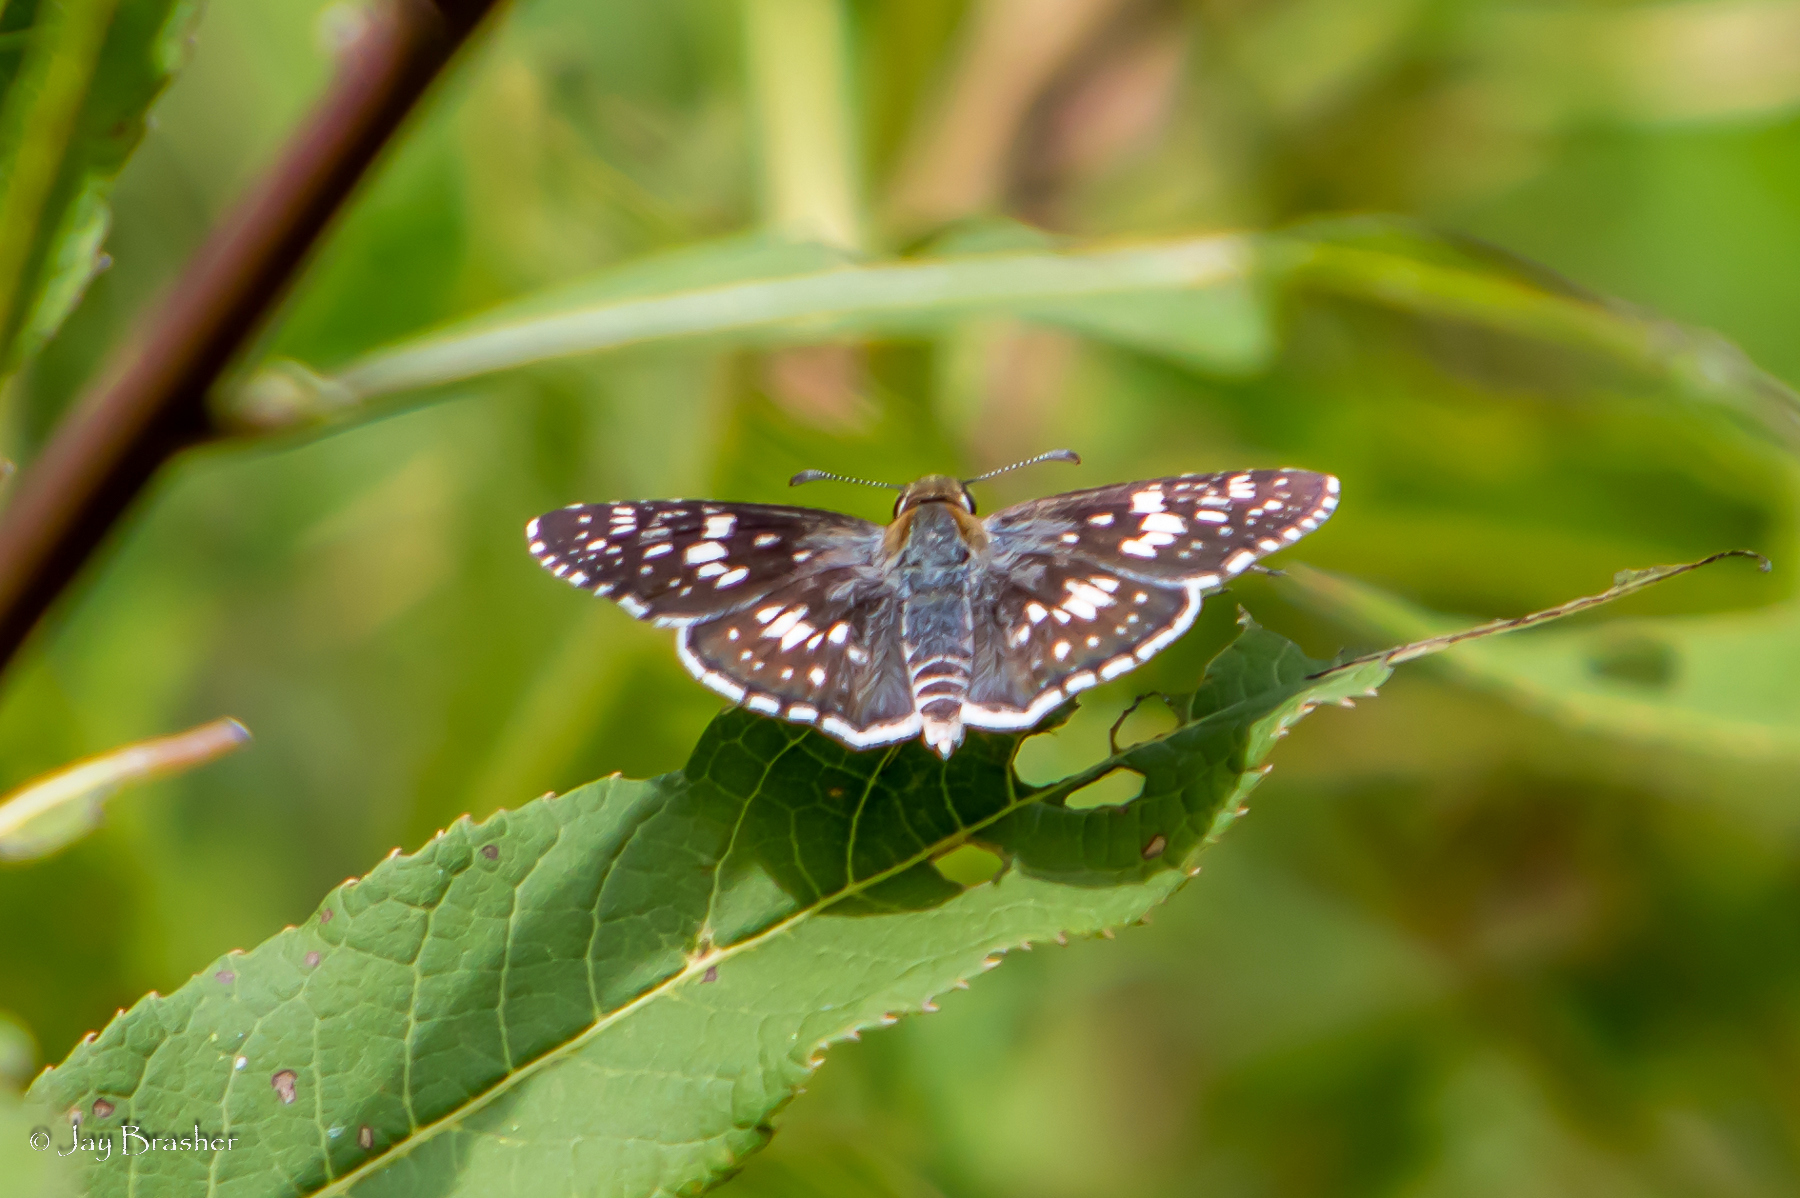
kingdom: Animalia
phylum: Arthropoda
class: Insecta
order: Lepidoptera
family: Hesperiidae
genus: Burnsius
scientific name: Burnsius communis
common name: Common checkered-skipper
